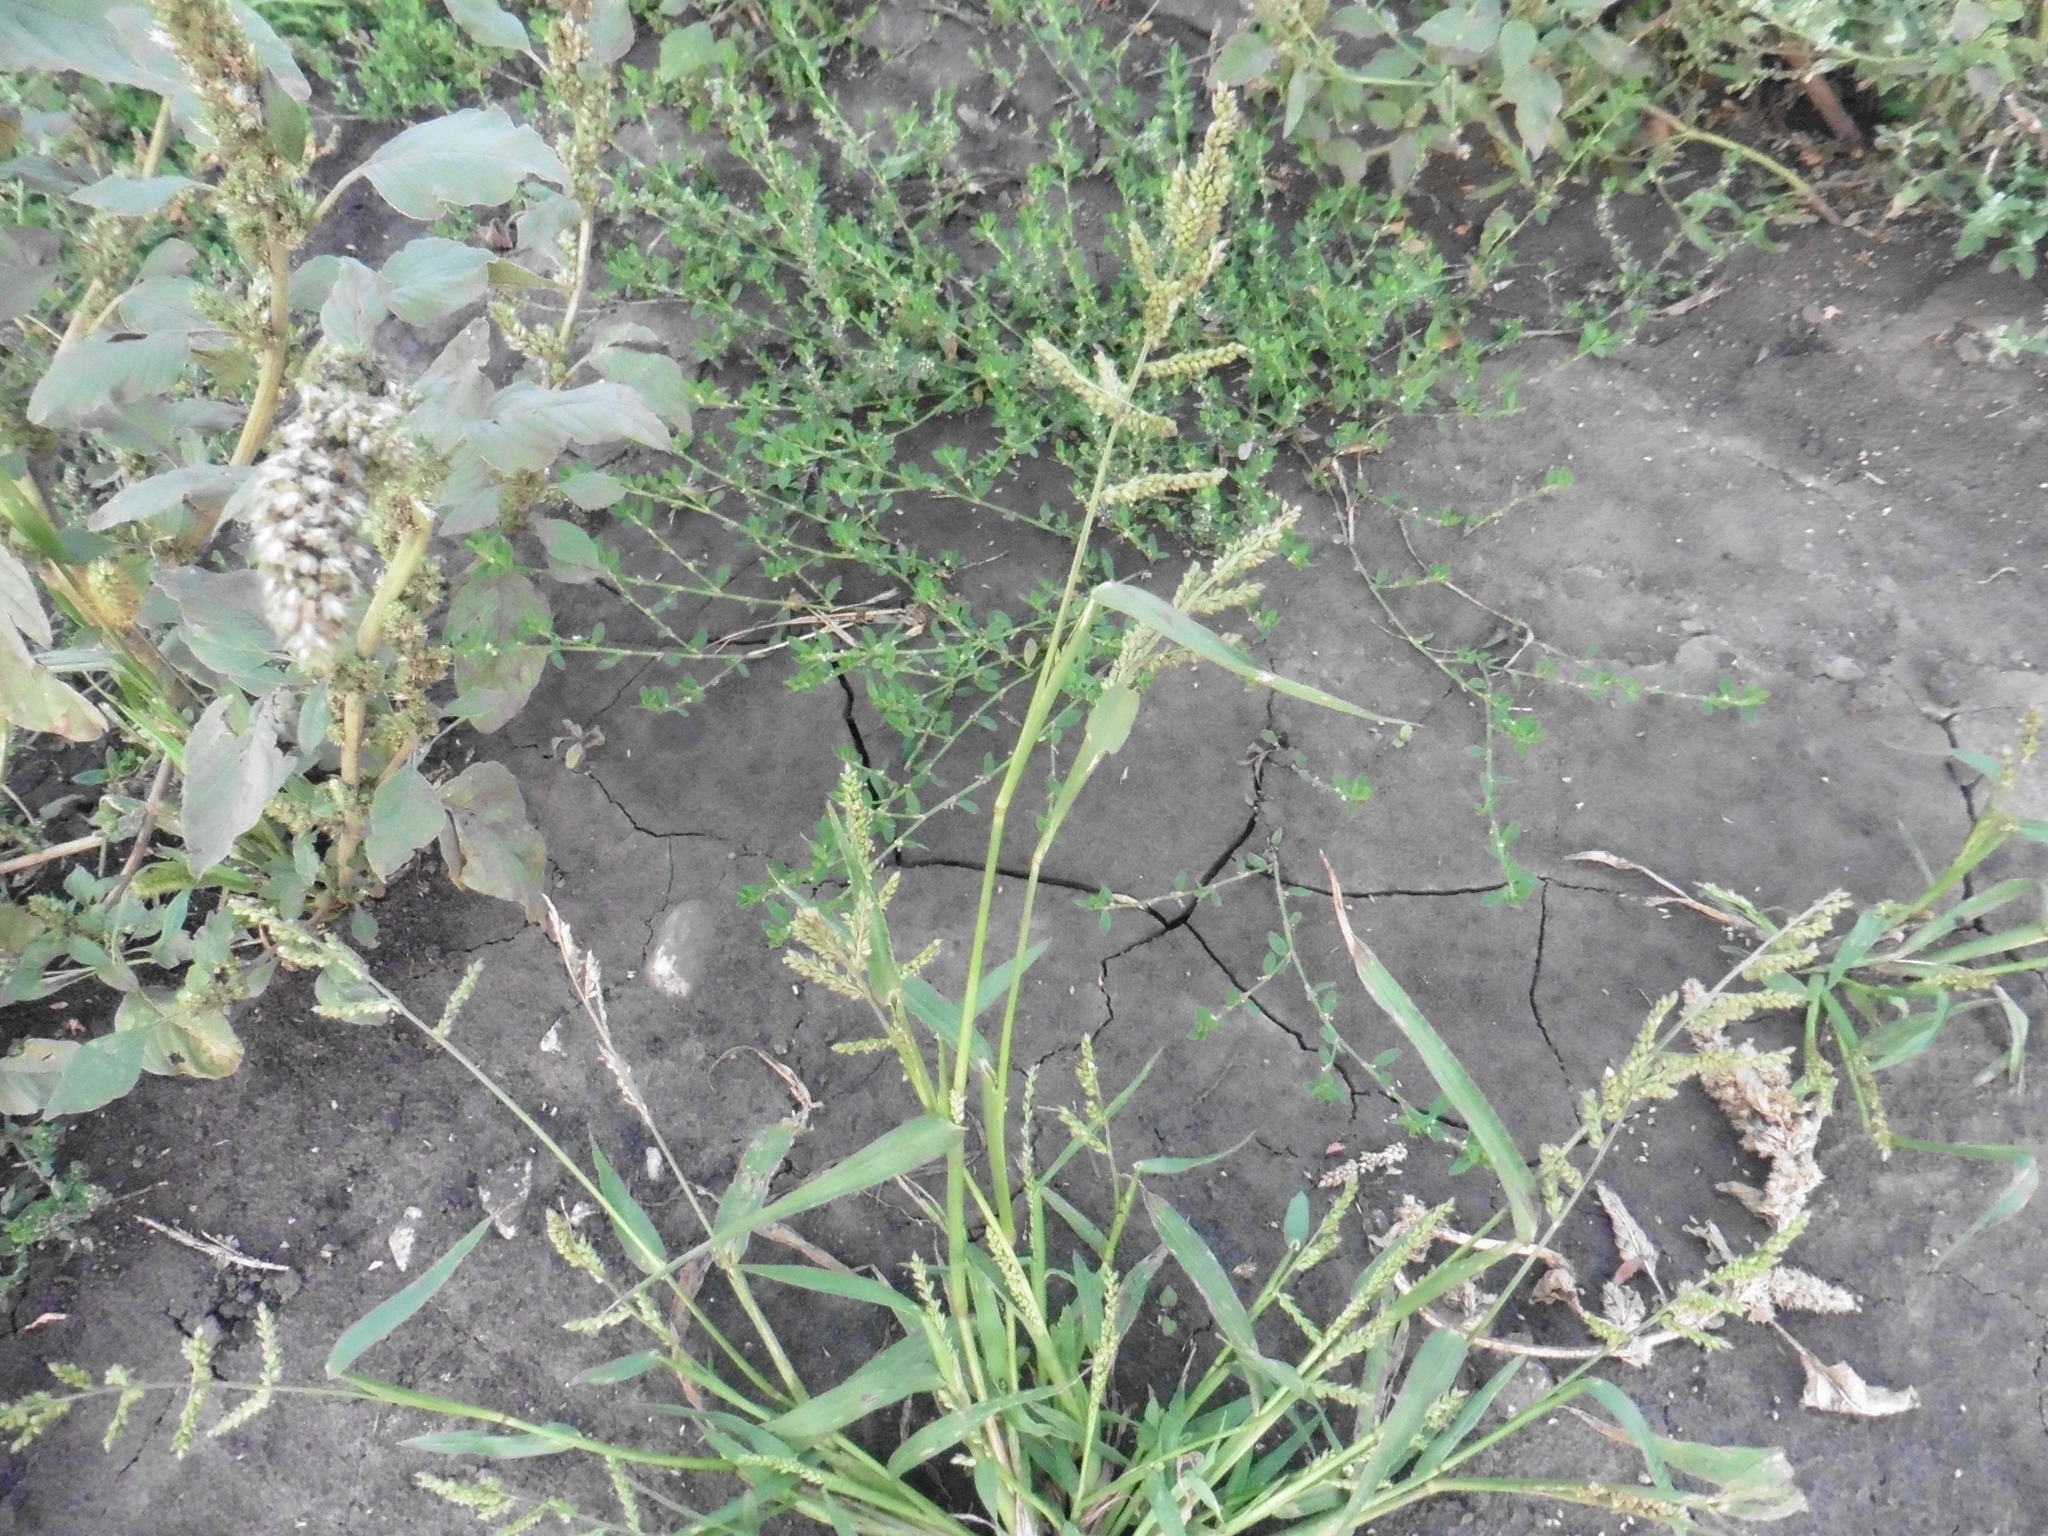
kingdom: Plantae
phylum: Tracheophyta
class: Liliopsida
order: Poales
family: Poaceae
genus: Echinochloa
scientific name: Echinochloa crus-galli
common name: Cockspur
